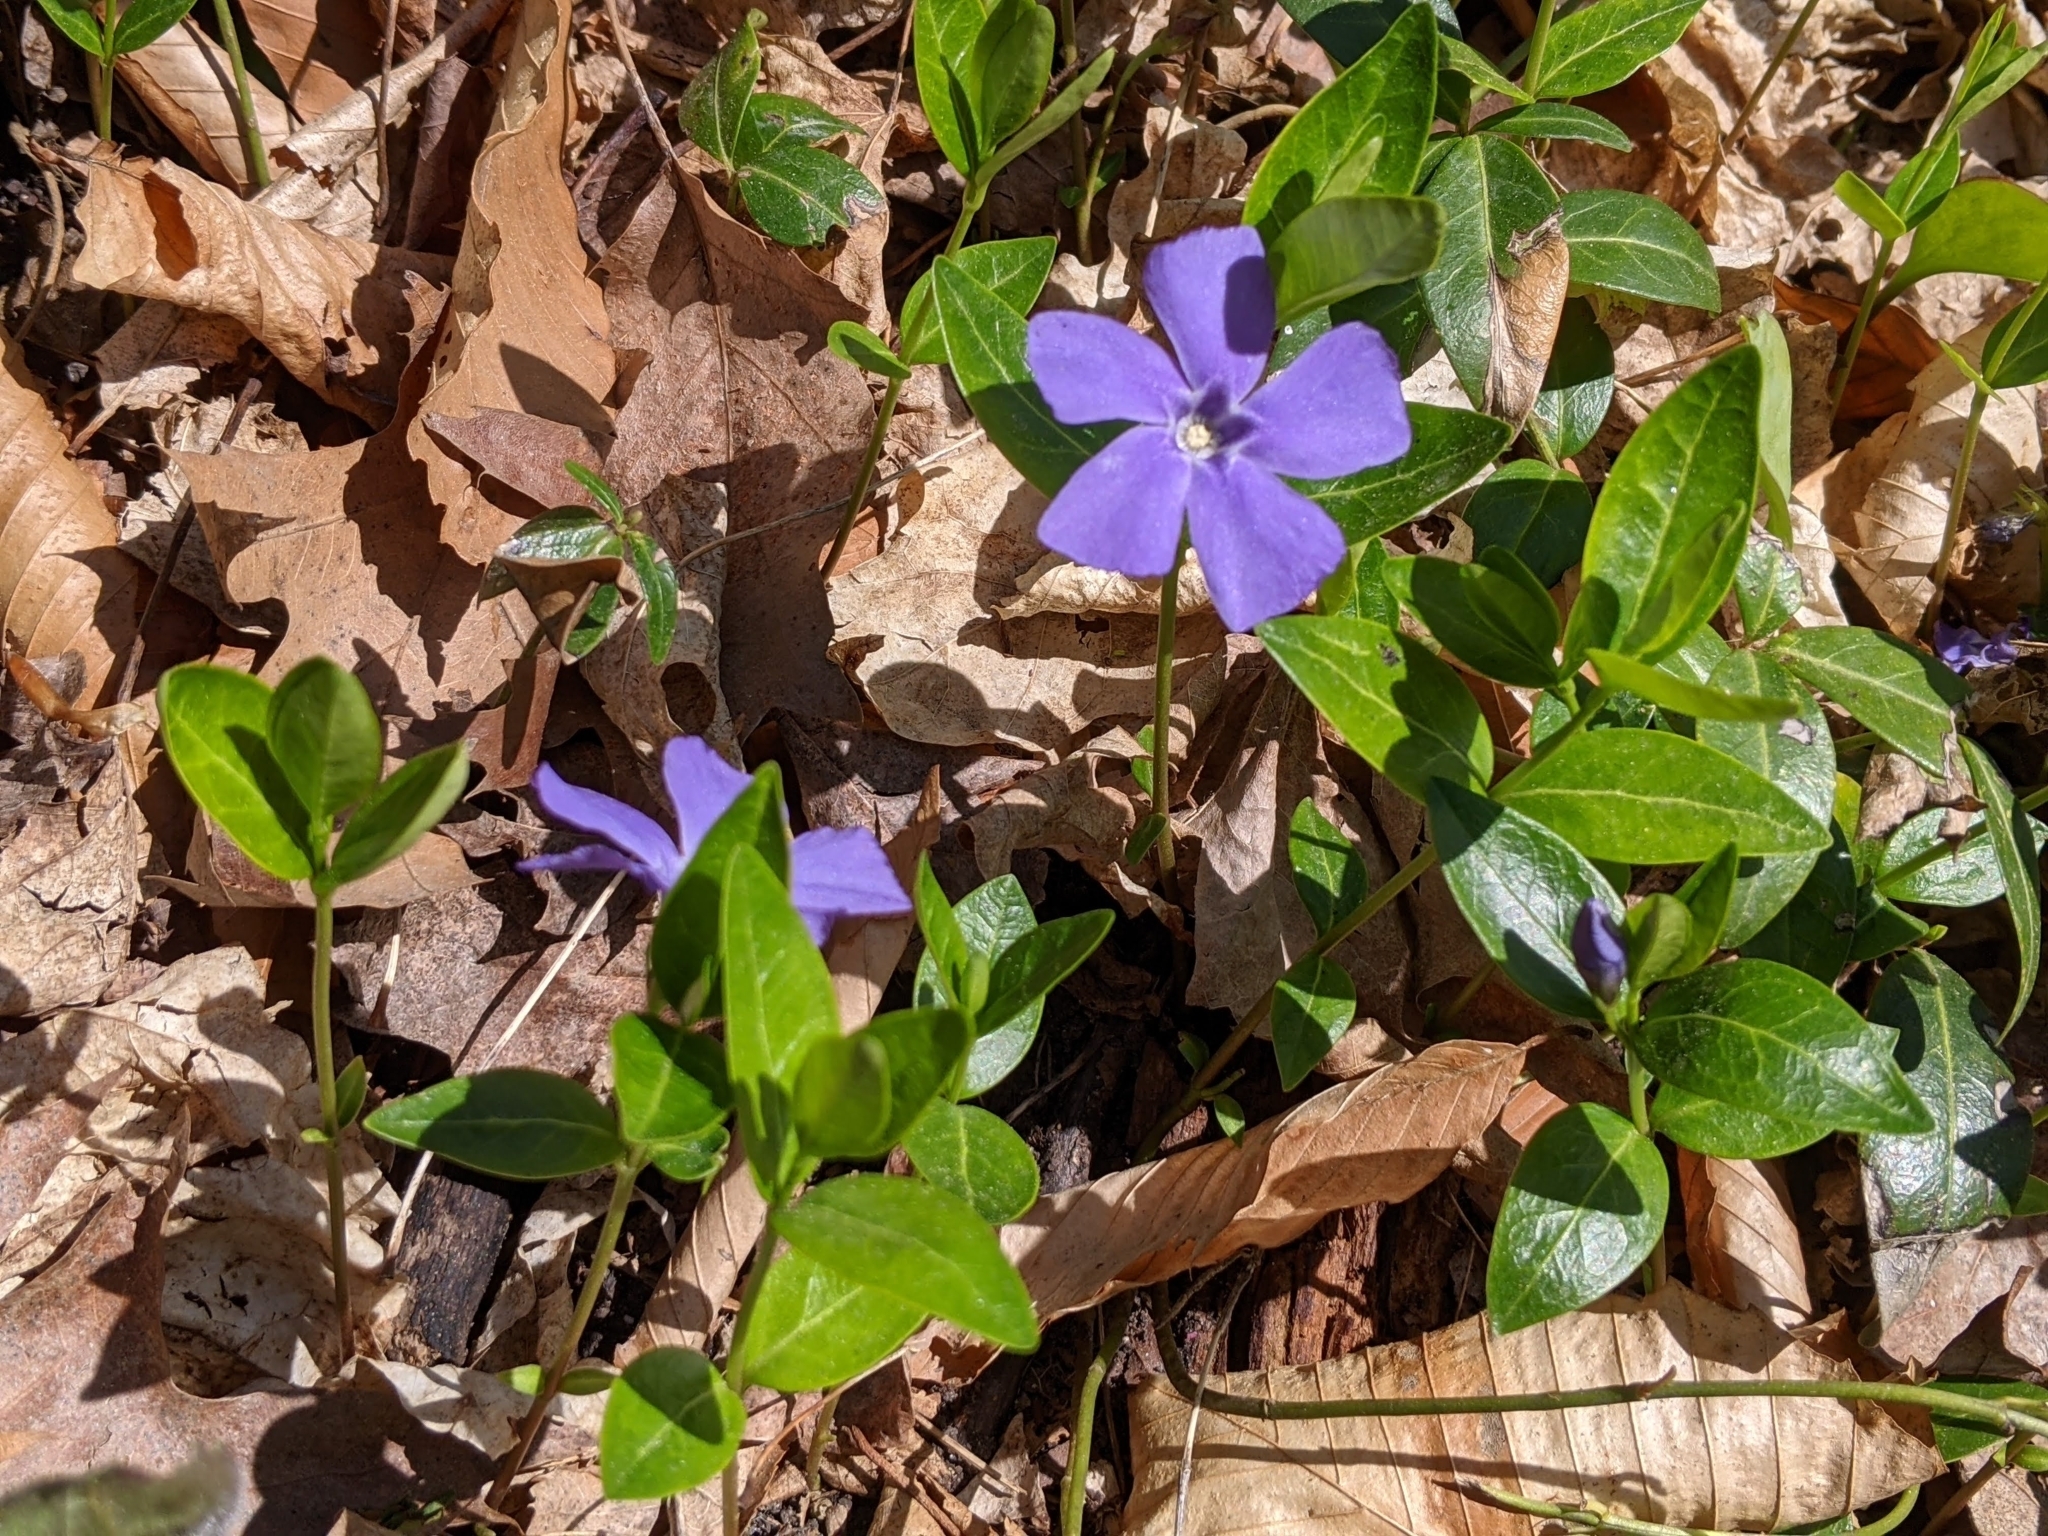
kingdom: Plantae
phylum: Tracheophyta
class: Magnoliopsida
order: Gentianales
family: Apocynaceae
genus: Vinca
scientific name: Vinca minor
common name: Lesser periwinkle
